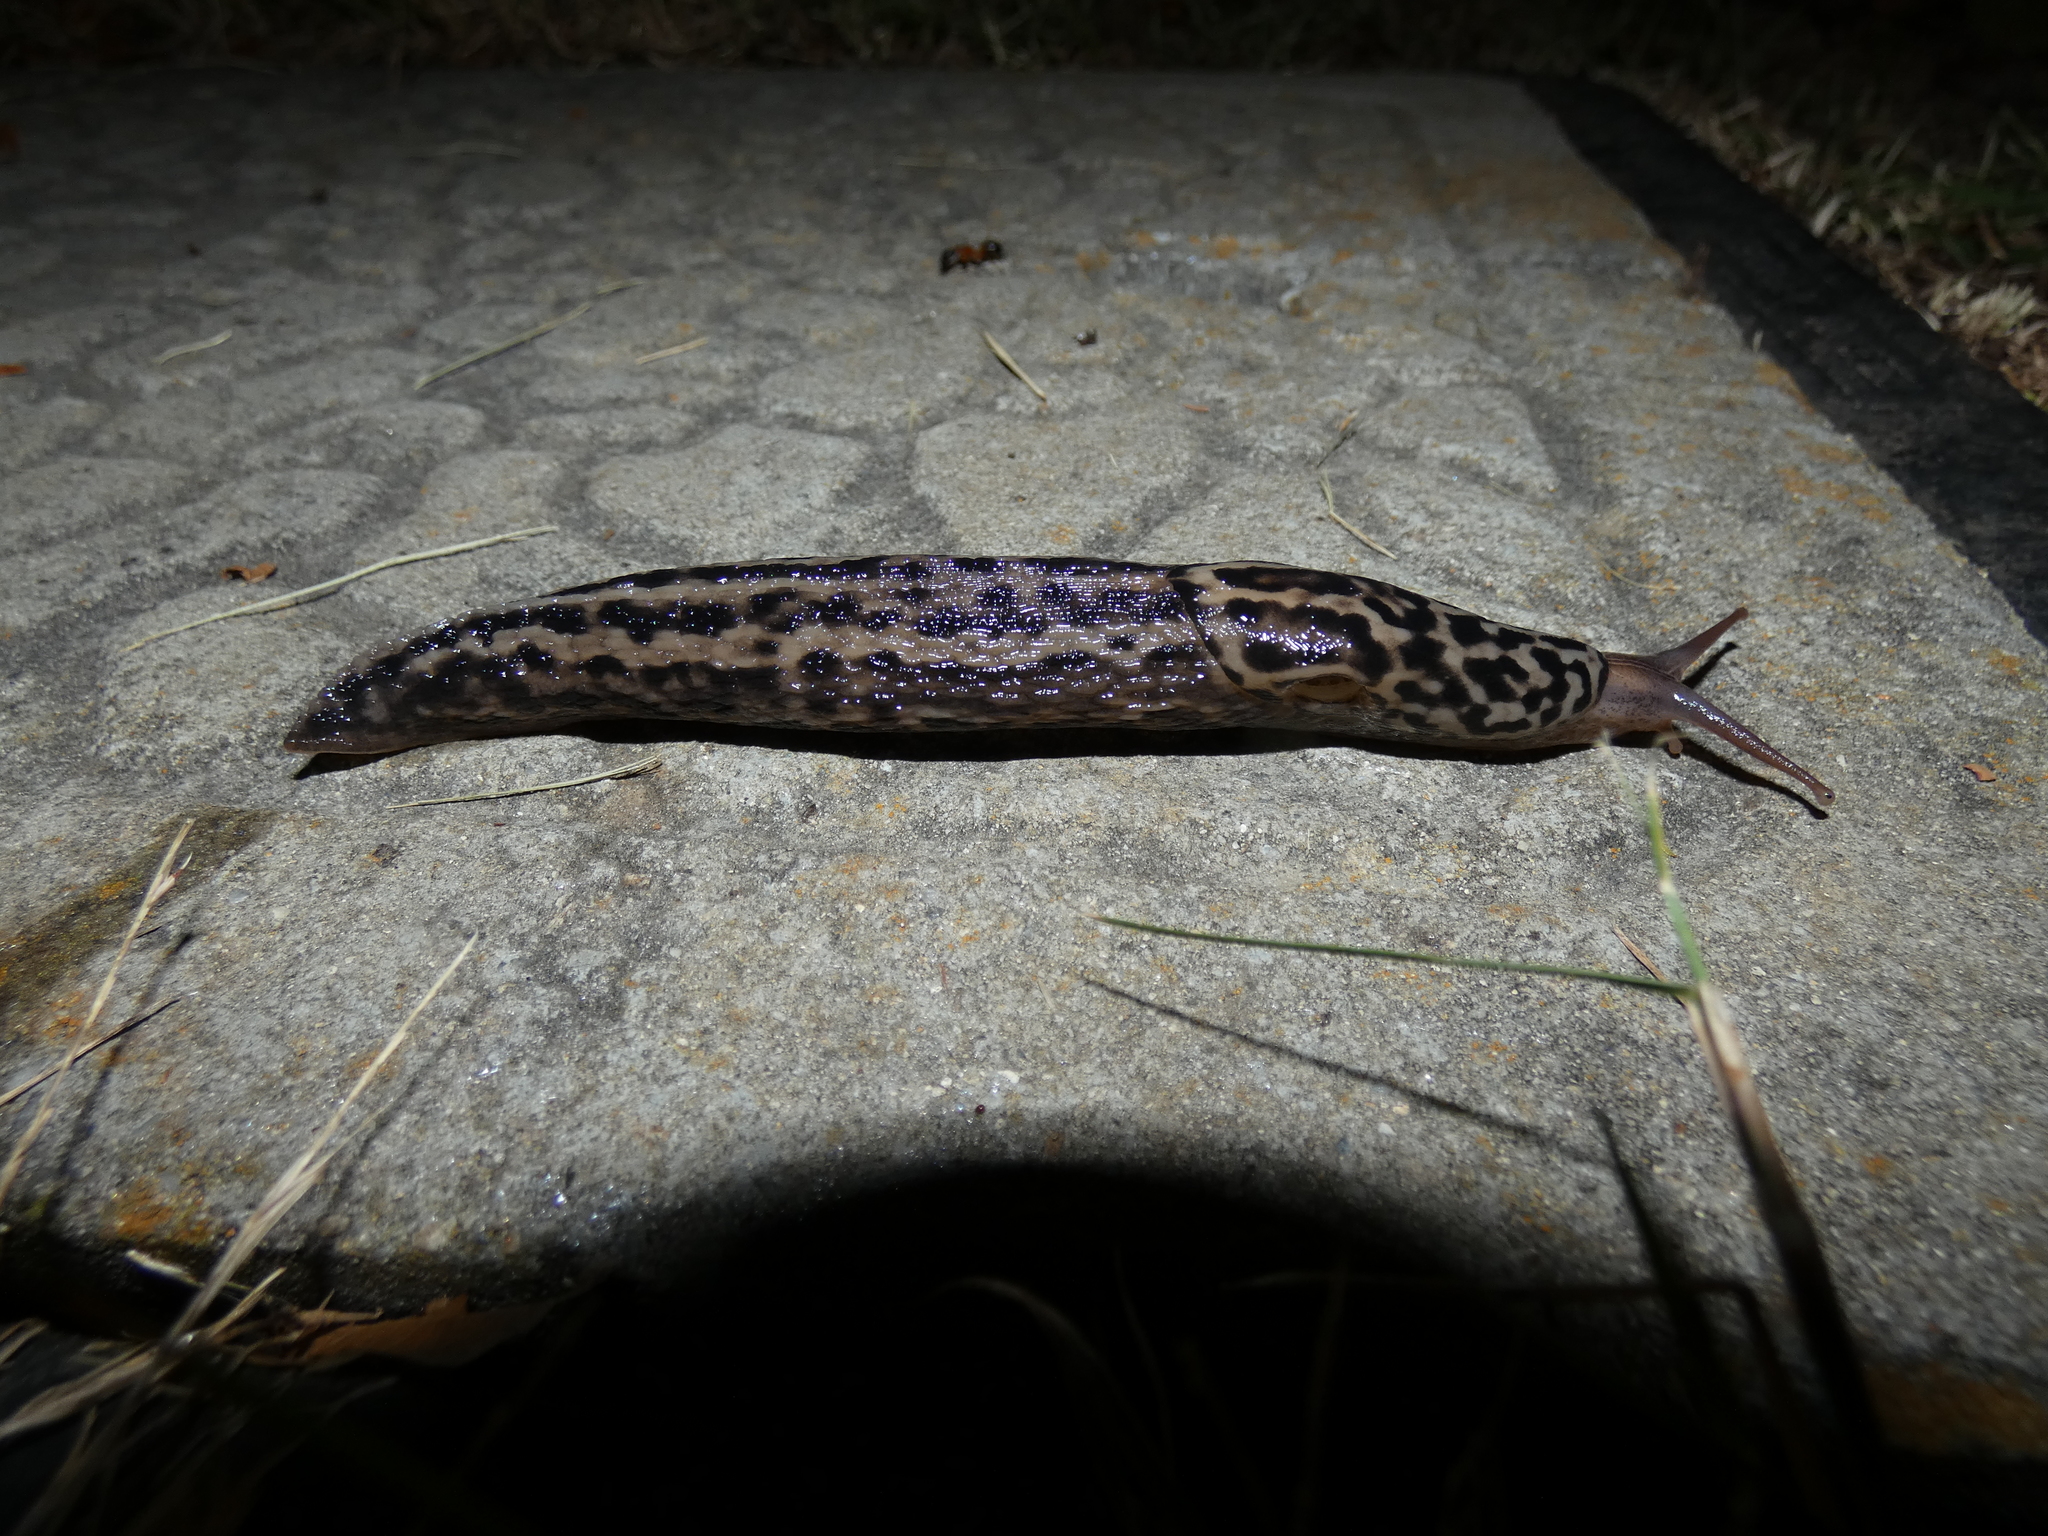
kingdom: Animalia
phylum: Mollusca
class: Gastropoda
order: Stylommatophora
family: Limacidae
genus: Limax
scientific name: Limax maximus
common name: Great grey slug
